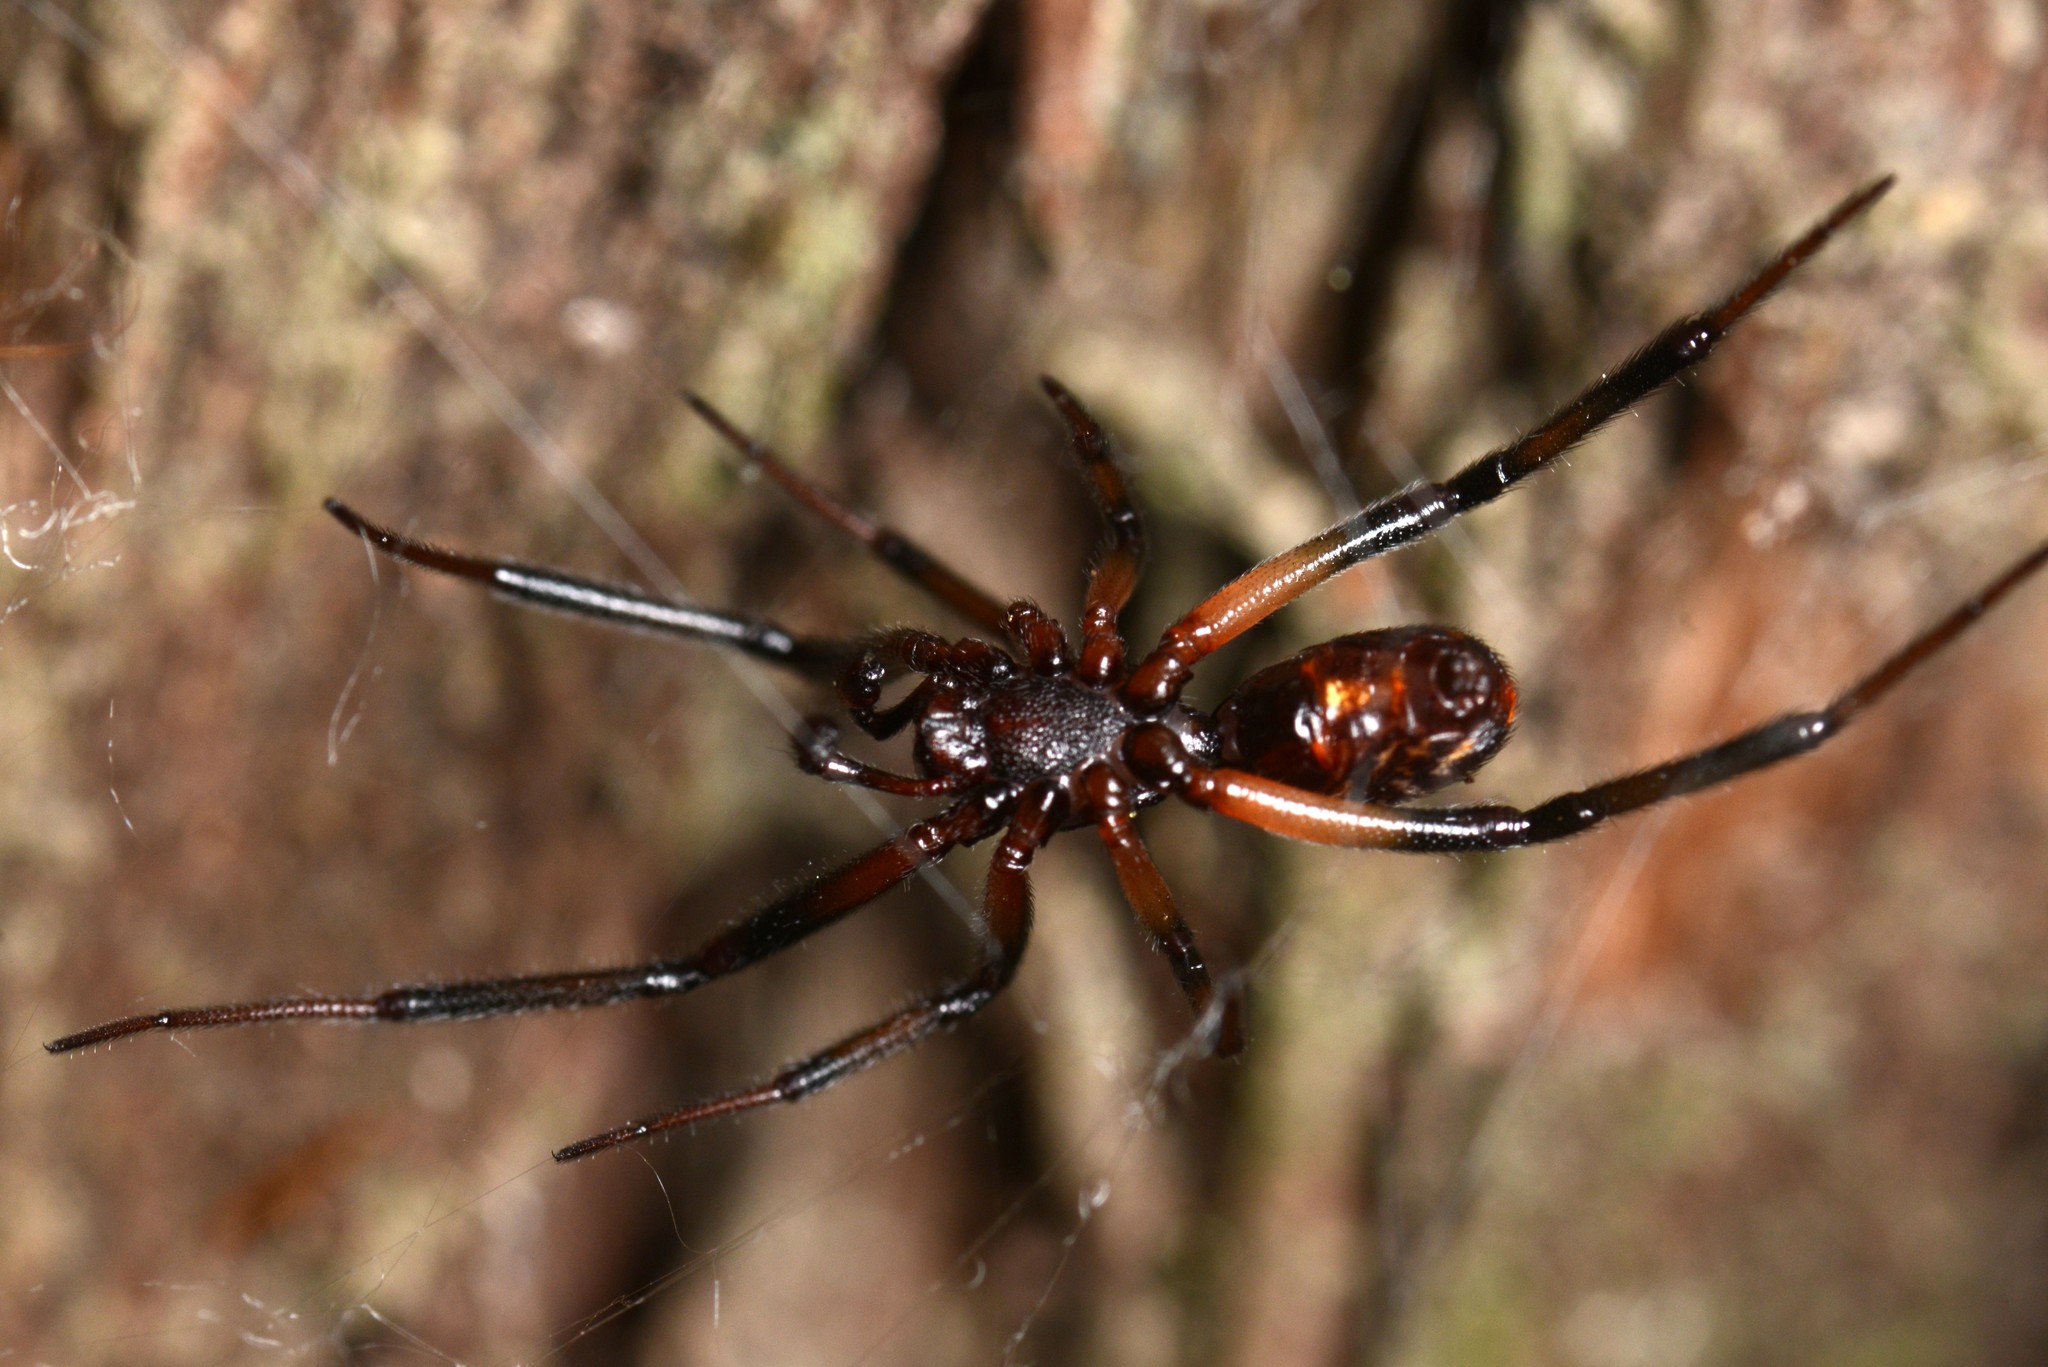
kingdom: Animalia
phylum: Arthropoda
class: Arachnida
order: Araneae
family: Theridiidae
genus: Steatoda
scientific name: Steatoda capensis
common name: Cobweb weaver
